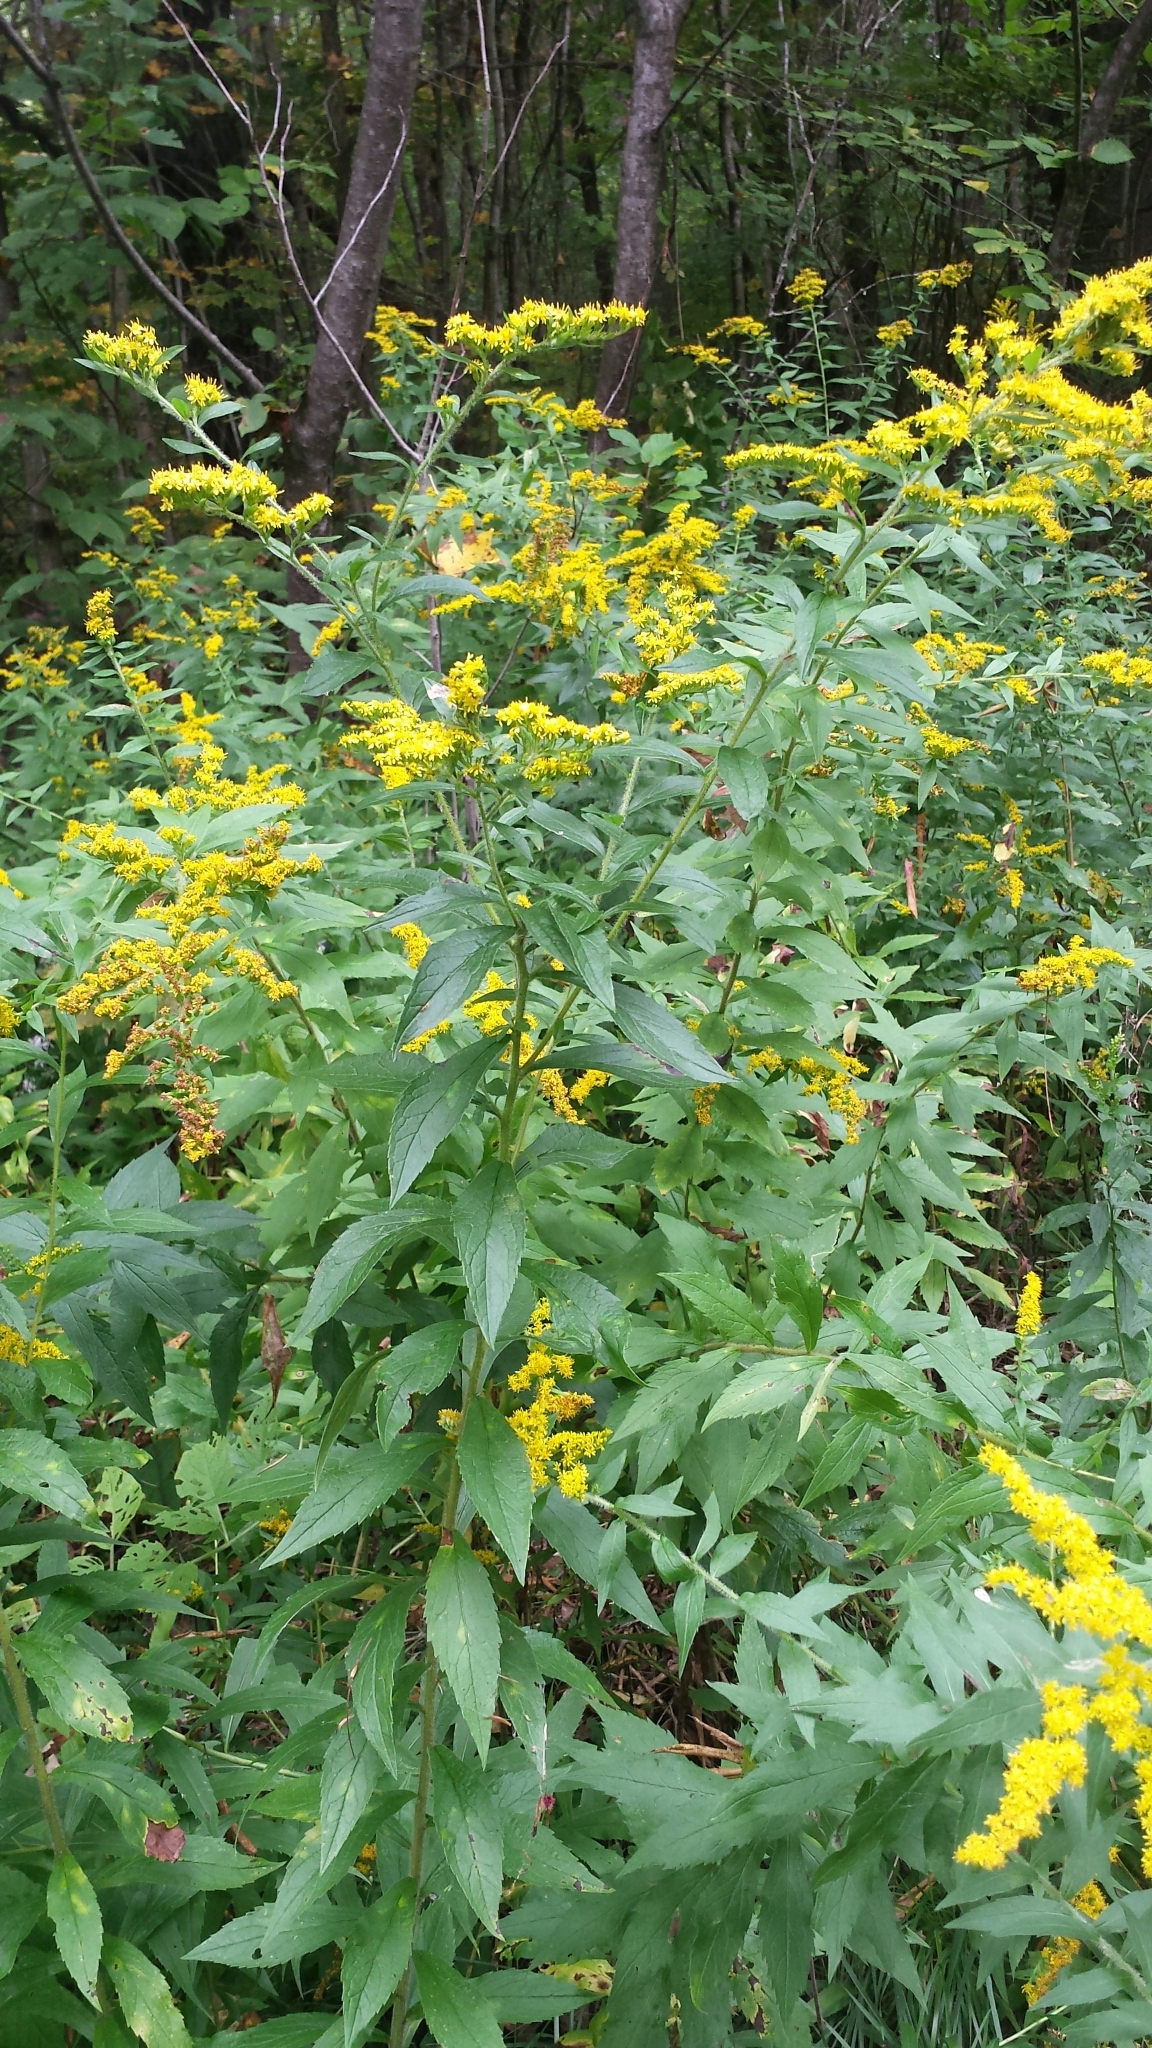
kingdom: Plantae
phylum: Tracheophyta
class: Magnoliopsida
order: Asterales
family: Asteraceae
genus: Solidago
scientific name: Solidago rugosa
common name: Rough-stemmed goldenrod
